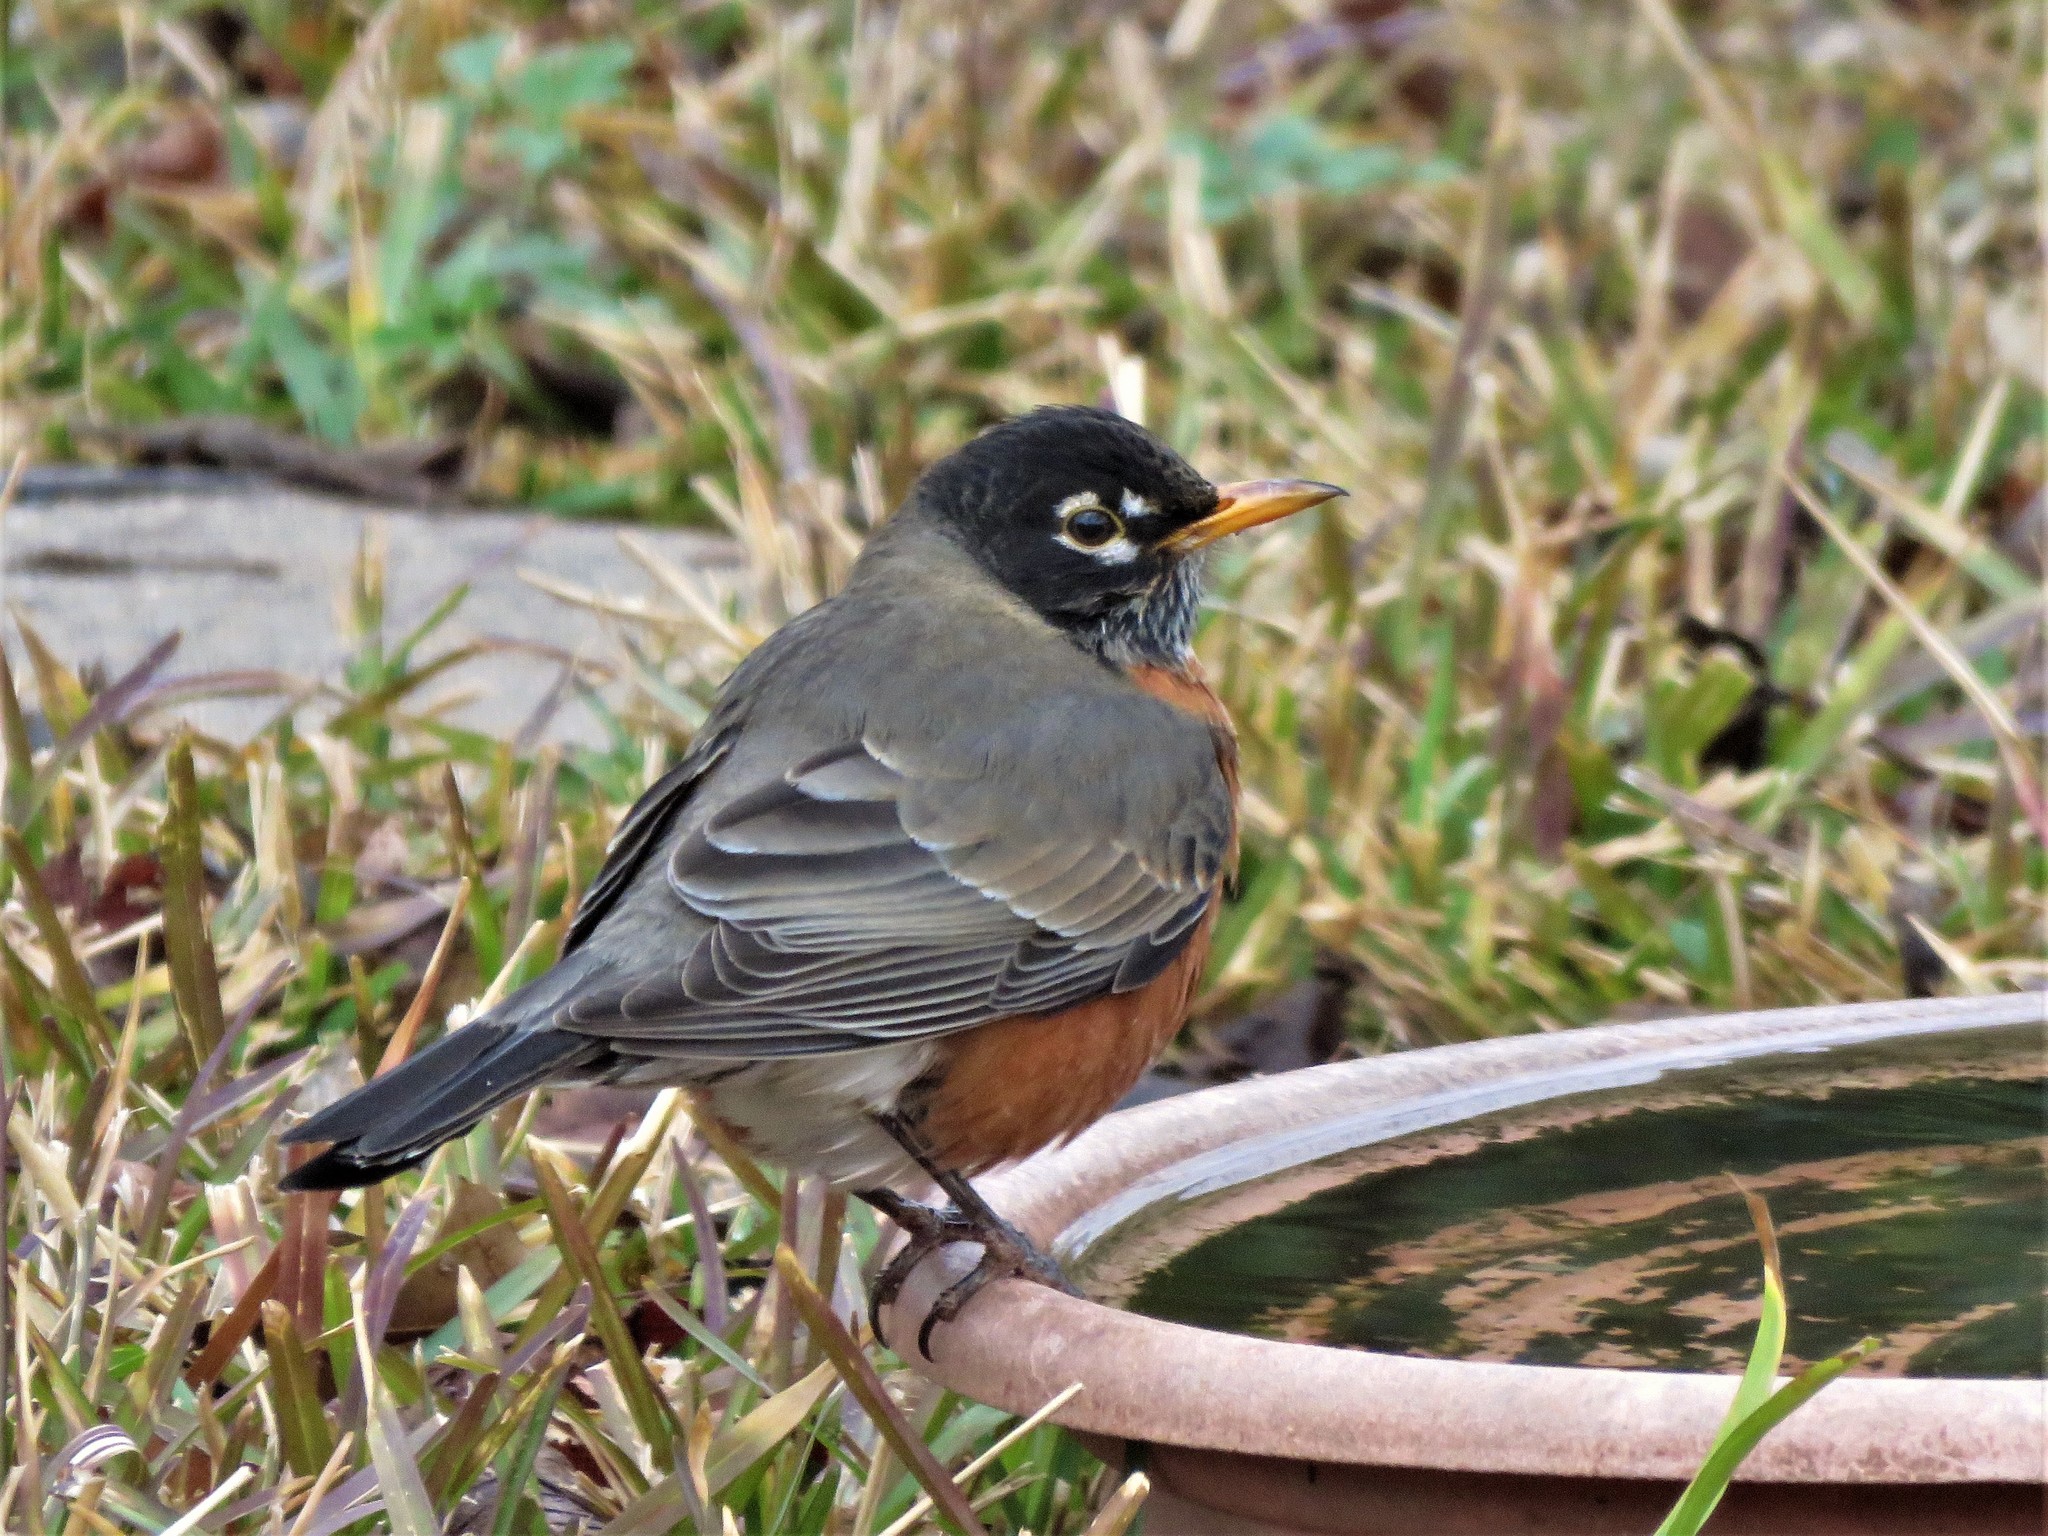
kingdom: Animalia
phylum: Chordata
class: Aves
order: Passeriformes
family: Turdidae
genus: Turdus
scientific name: Turdus migratorius
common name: American robin
